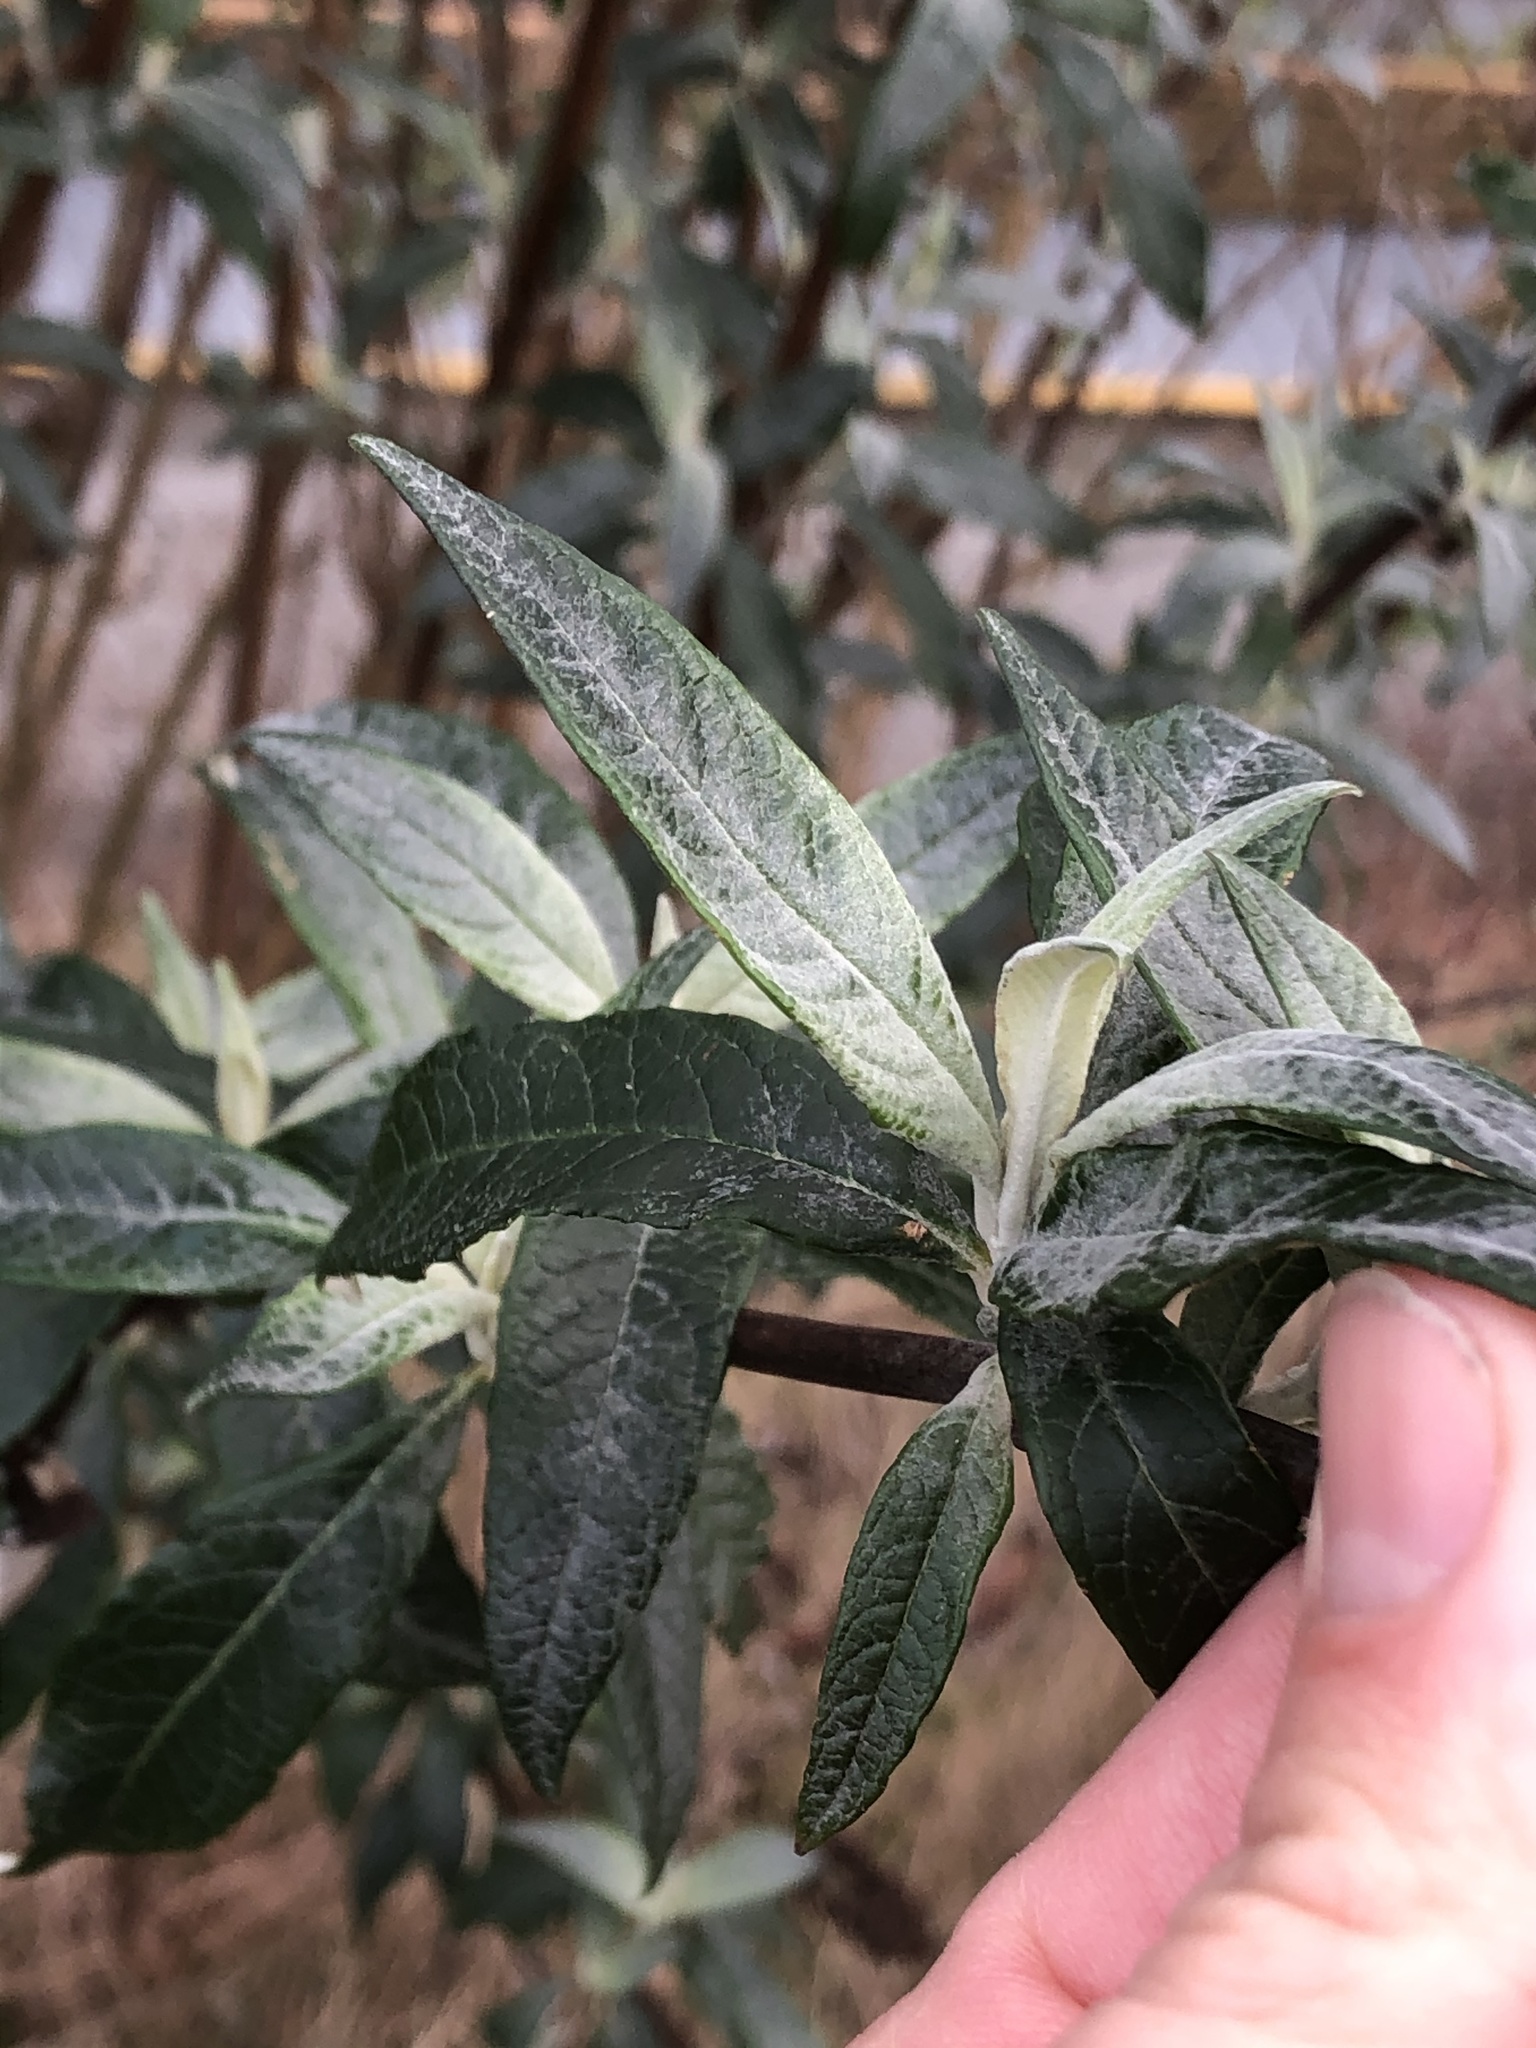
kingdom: Plantae
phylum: Tracheophyta
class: Magnoliopsida
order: Lamiales
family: Scrophulariaceae
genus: Buddleja
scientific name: Buddleja davidii
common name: Butterfly-bush
